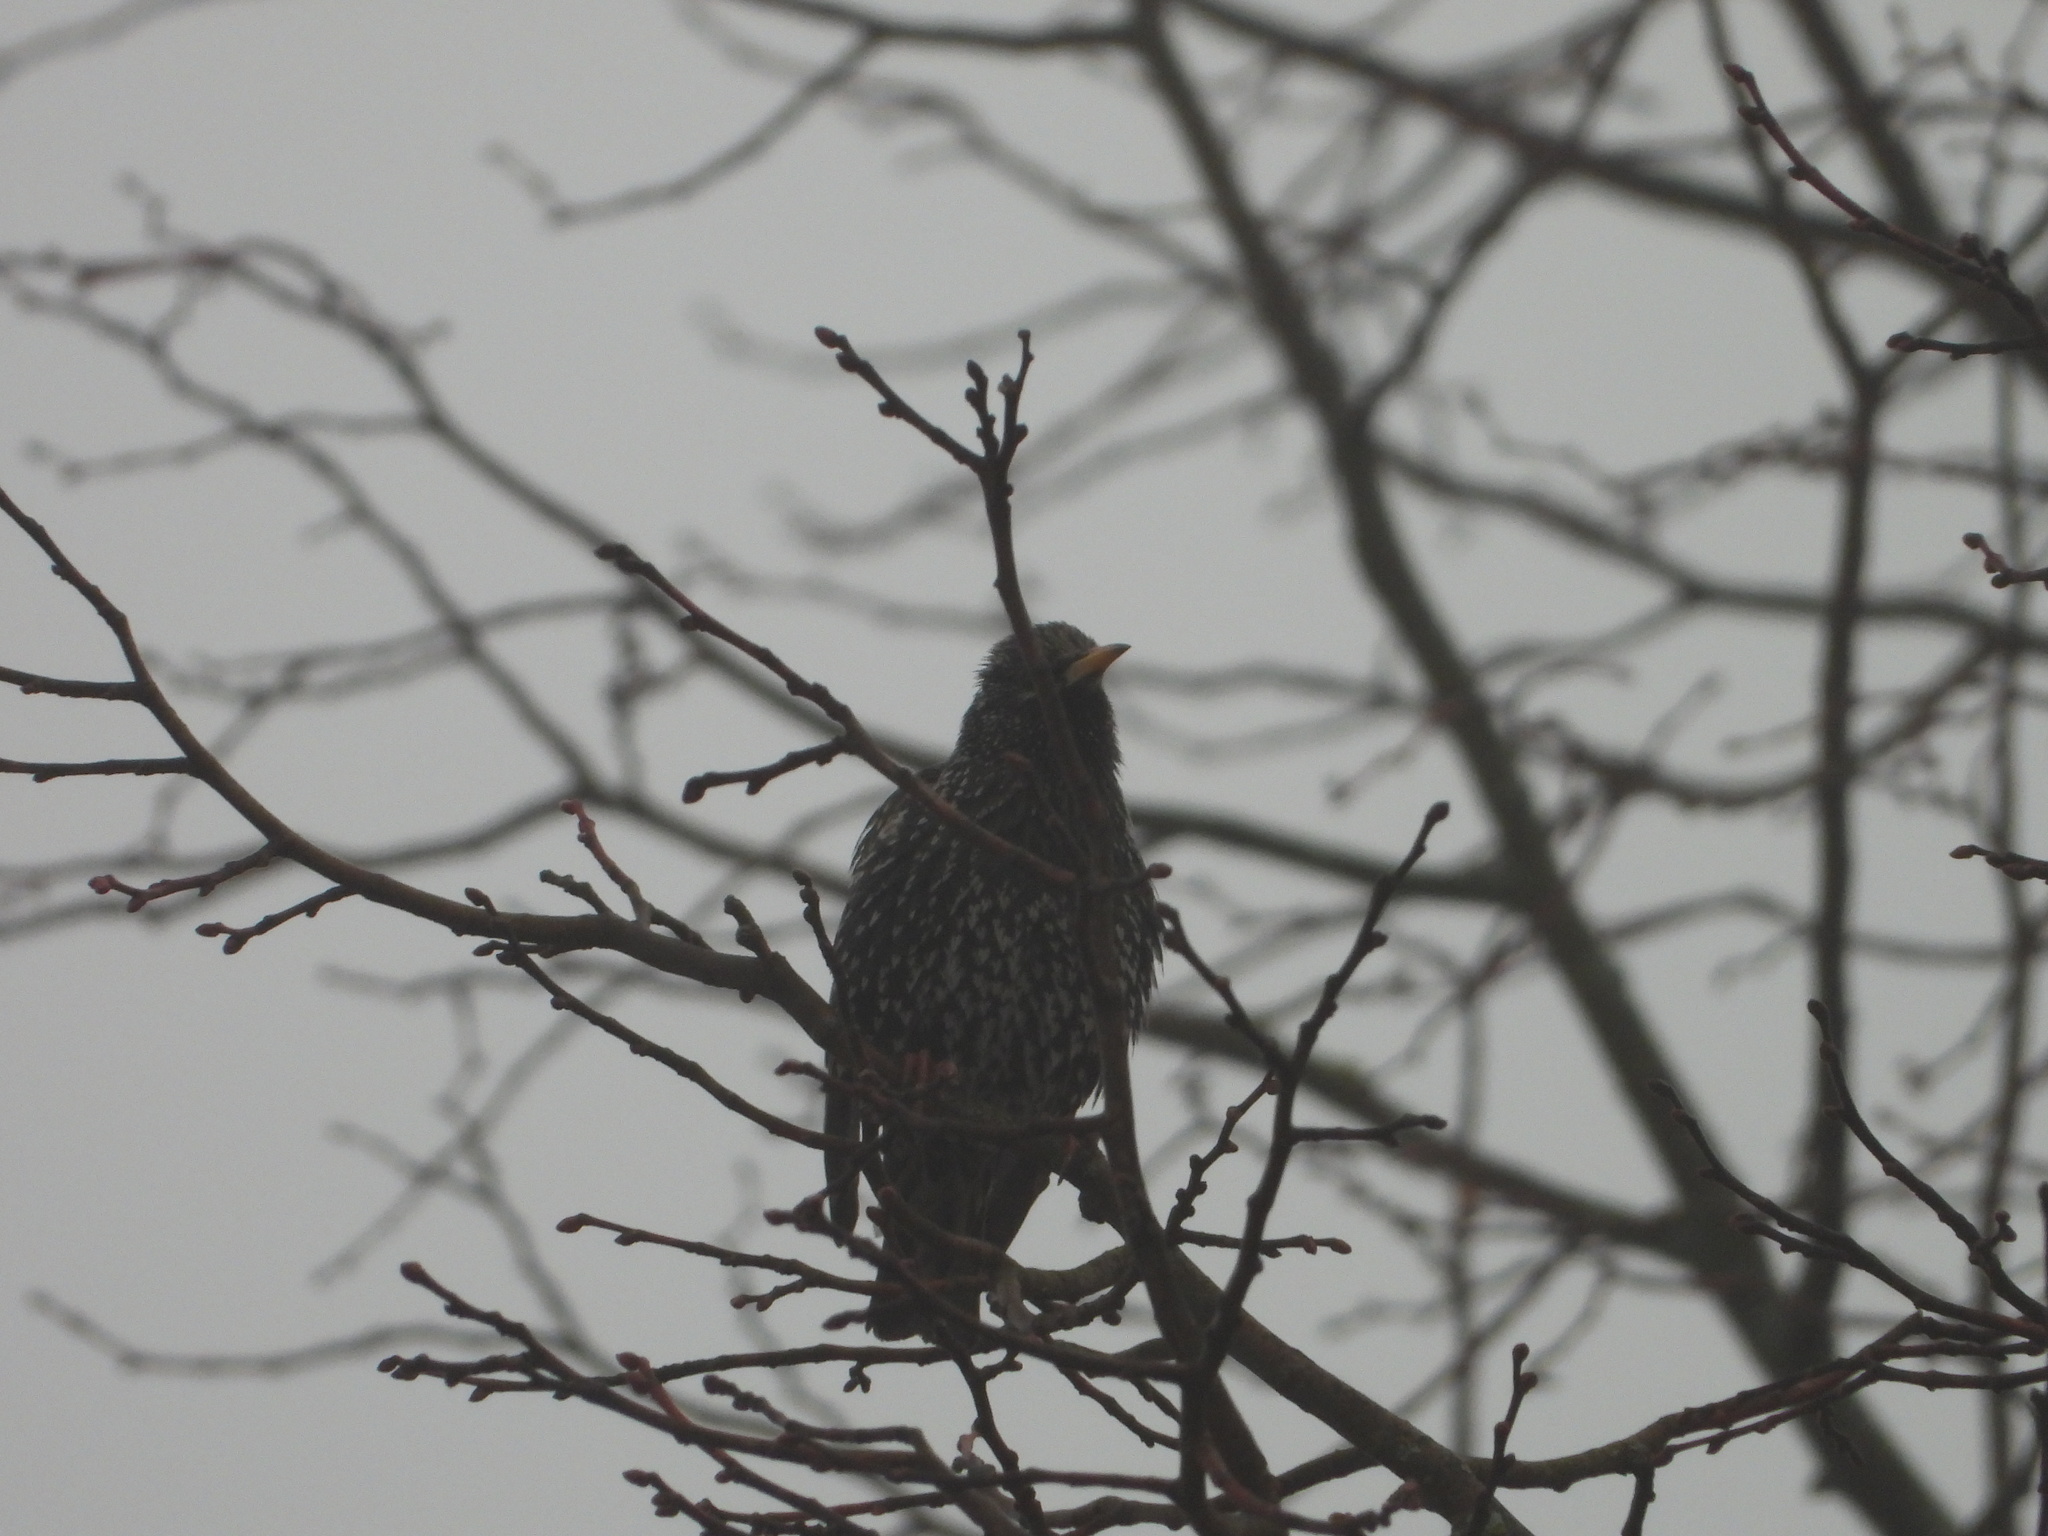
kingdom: Animalia
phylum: Chordata
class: Aves
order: Passeriformes
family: Sturnidae
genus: Sturnus
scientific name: Sturnus vulgaris
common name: Common starling
